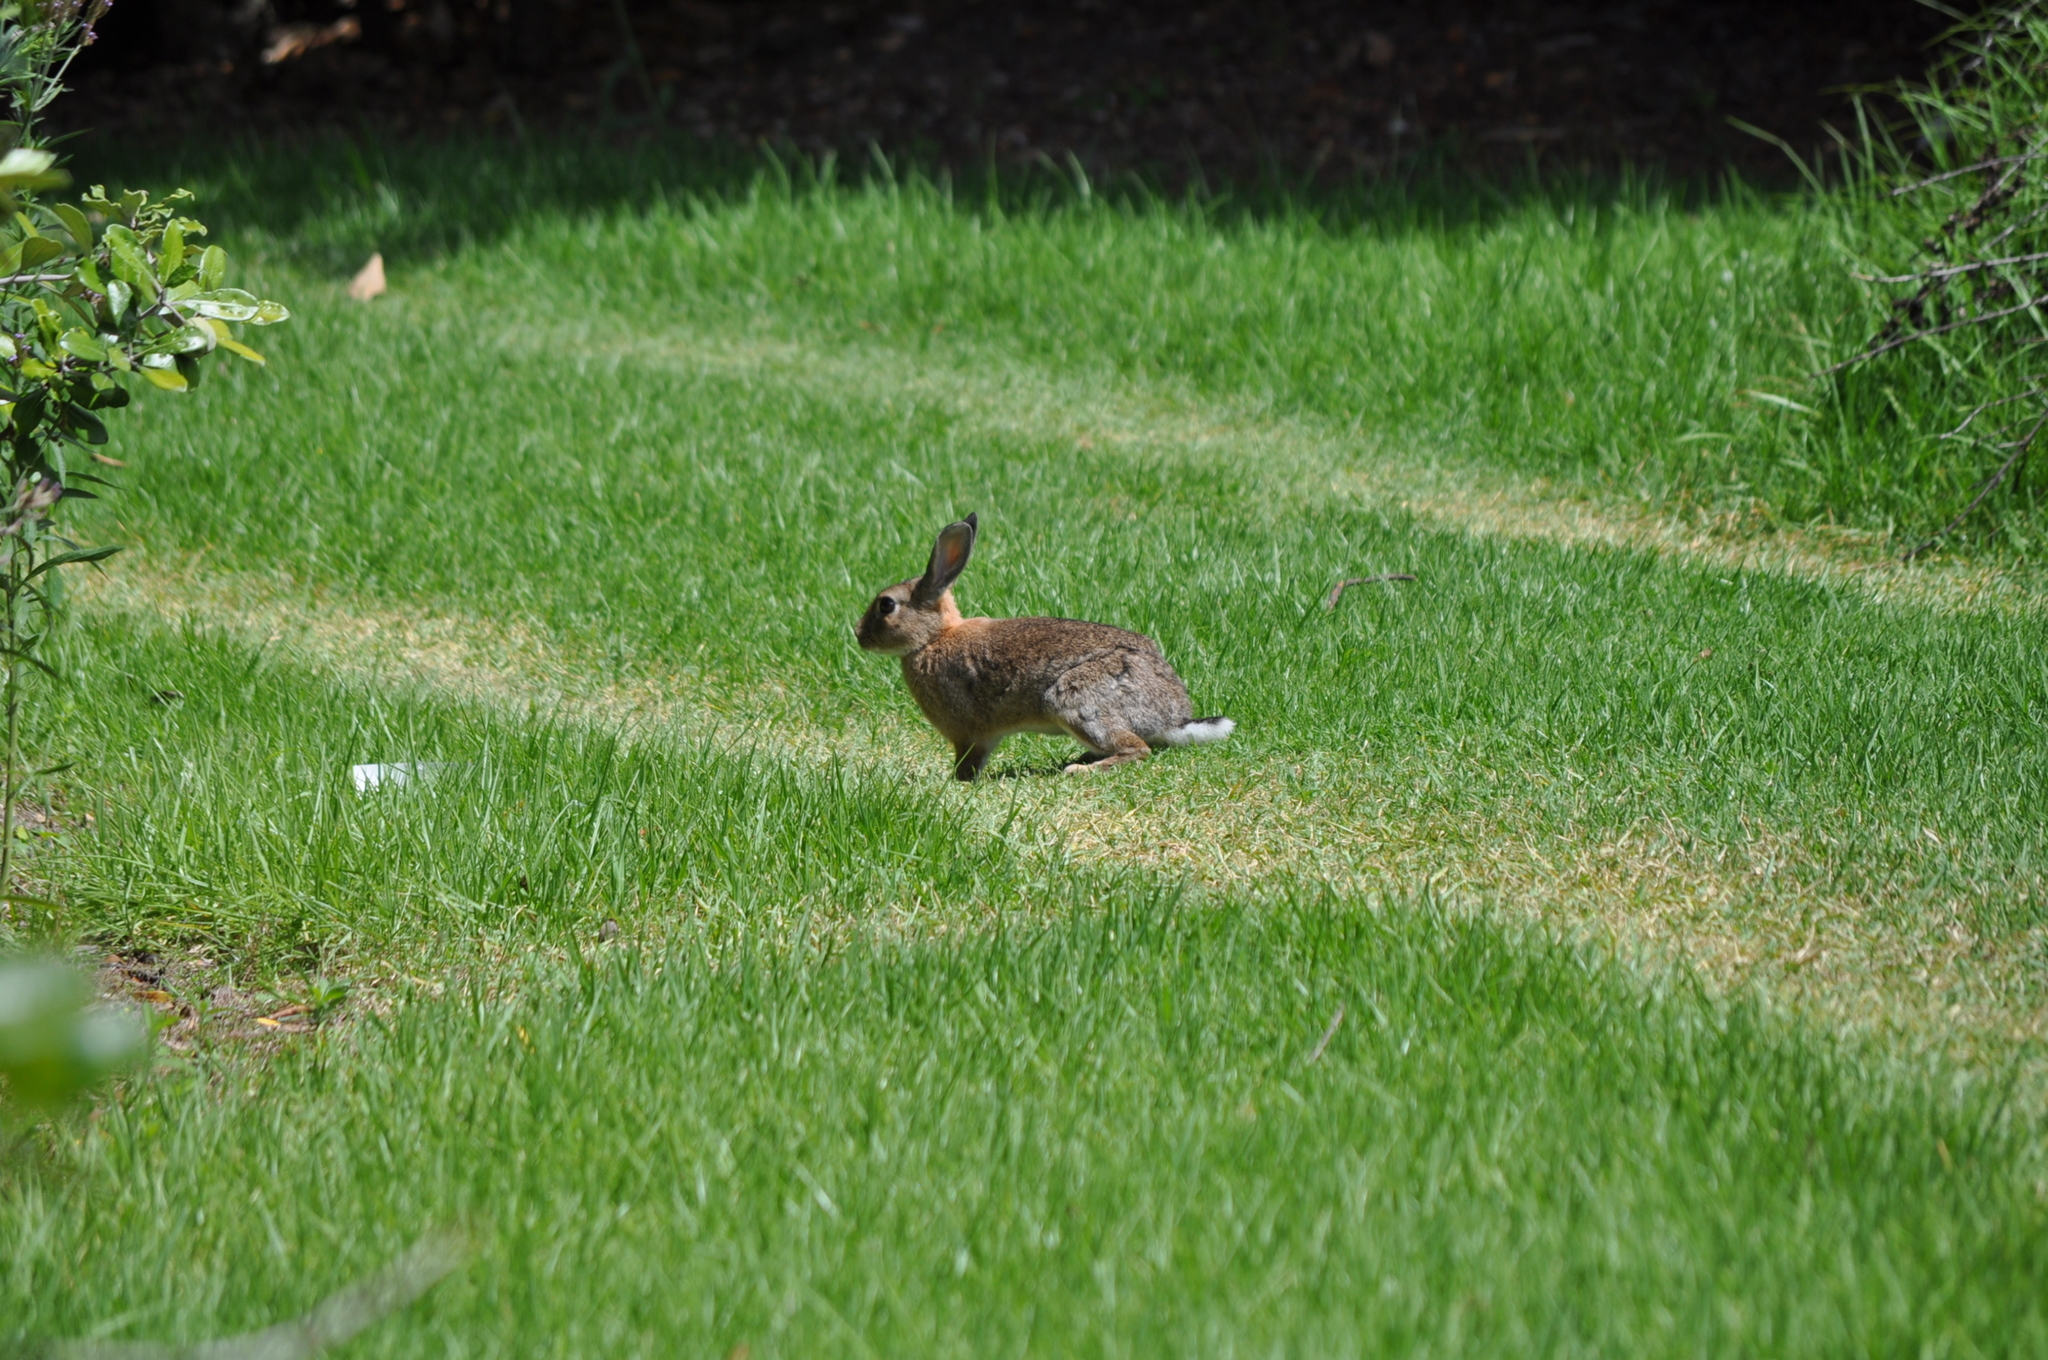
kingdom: Animalia
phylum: Chordata
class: Mammalia
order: Lagomorpha
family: Leporidae
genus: Oryctolagus
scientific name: Oryctolagus cuniculus
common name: European rabbit
